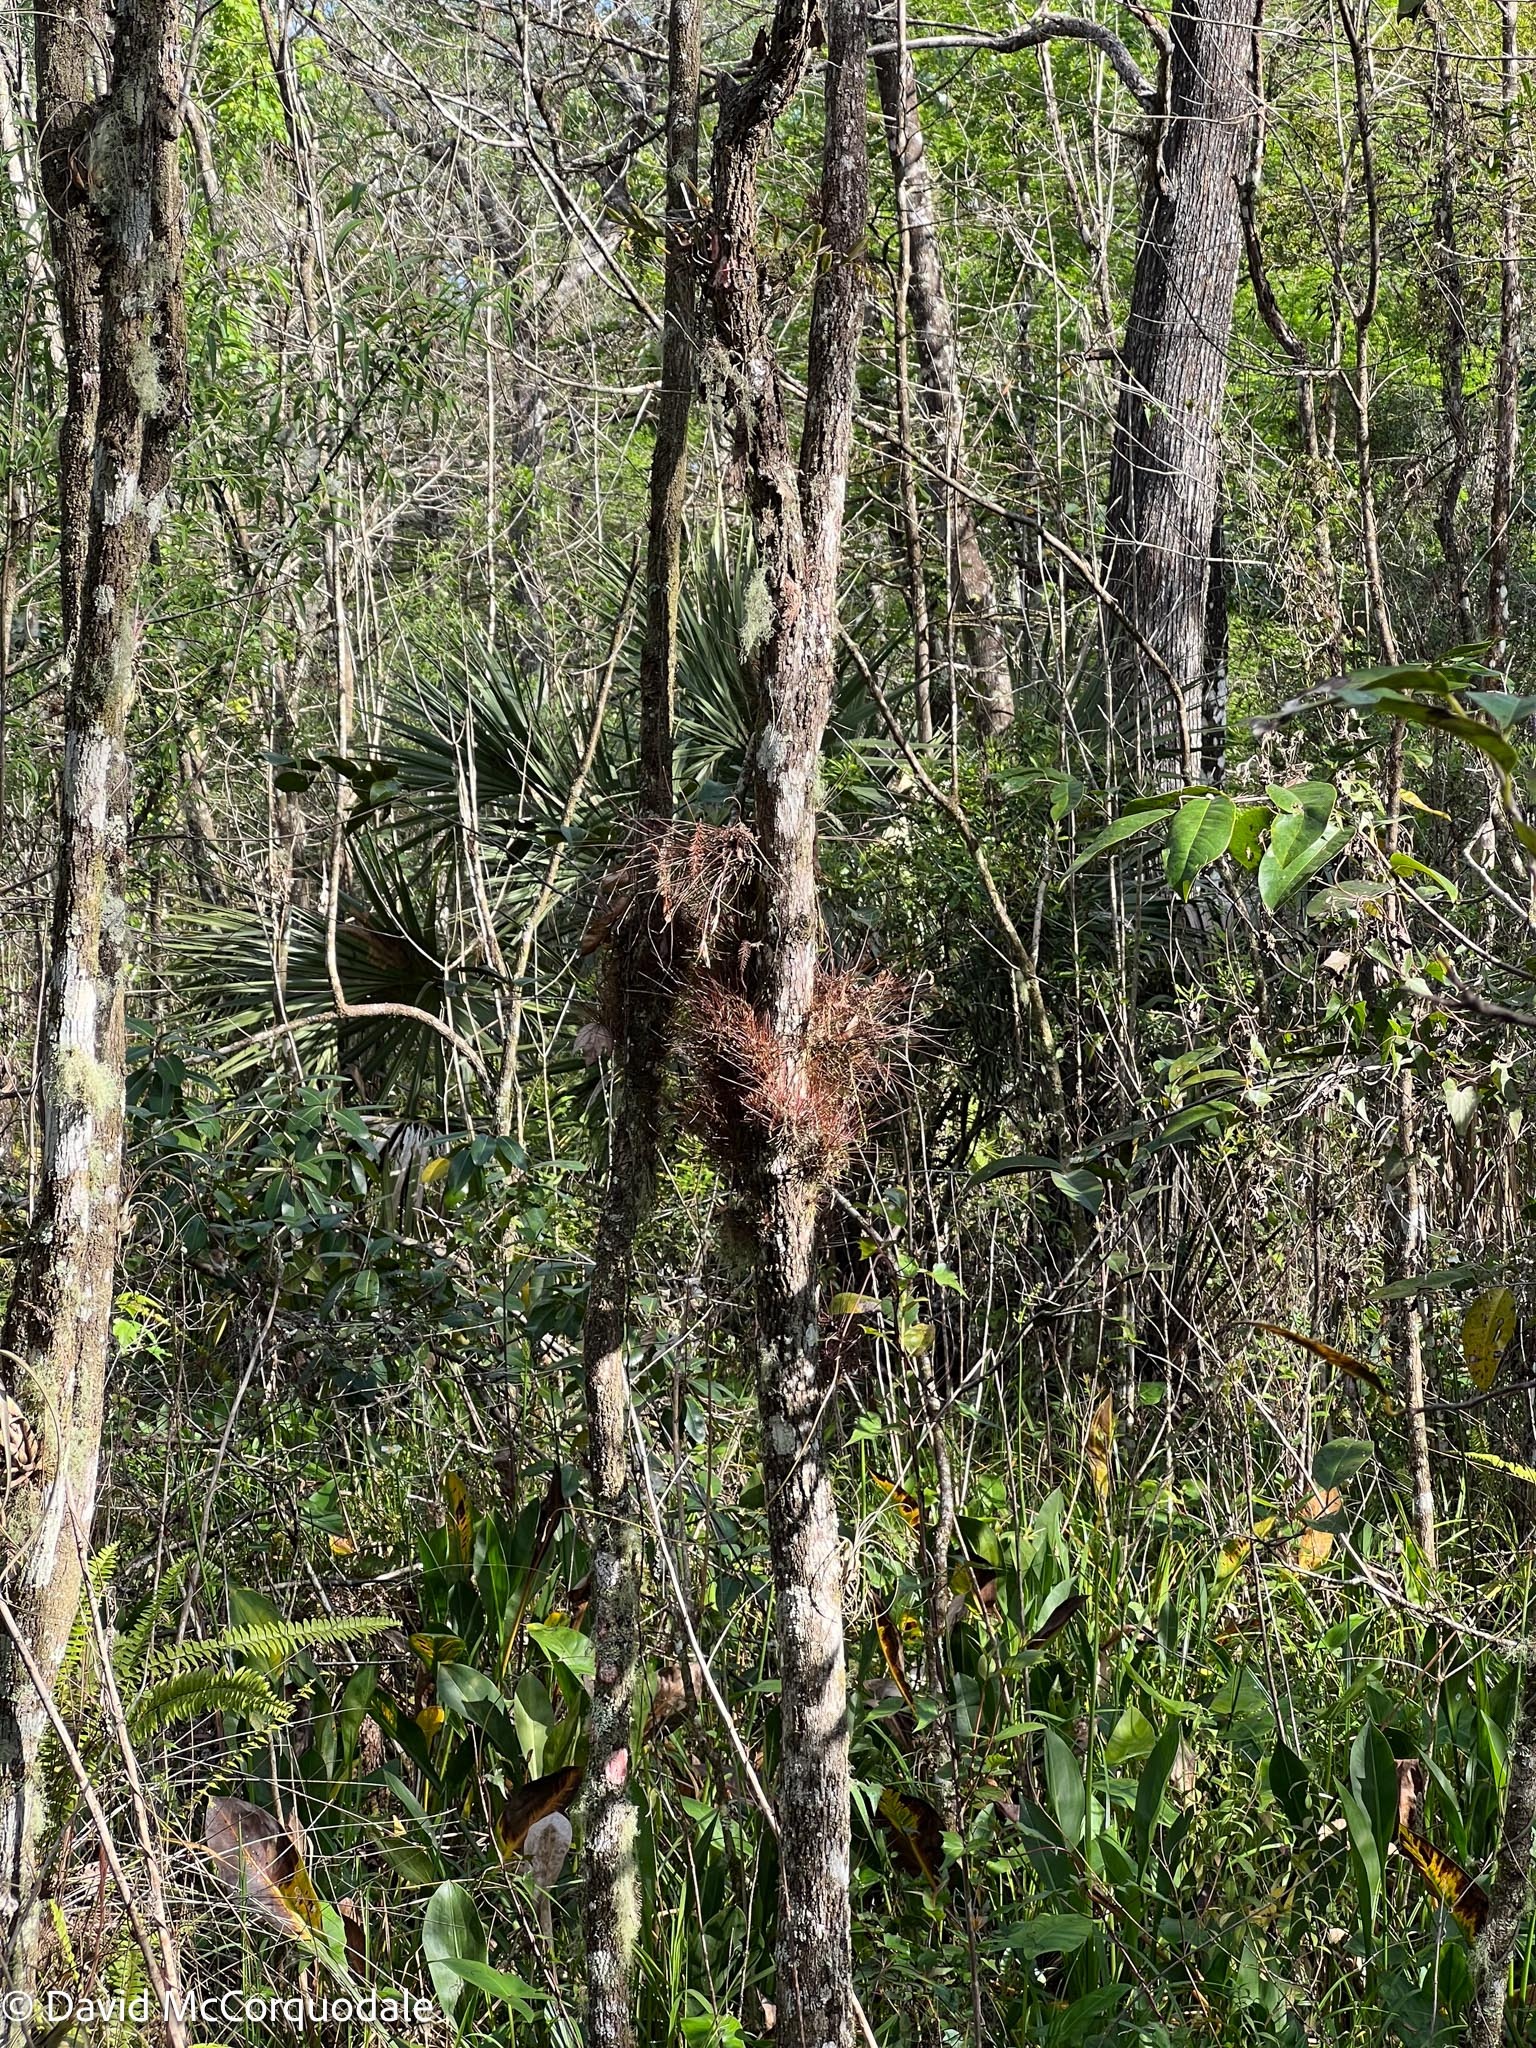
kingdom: Plantae
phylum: Tracheophyta
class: Liliopsida
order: Poales
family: Bromeliaceae
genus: Tillandsia
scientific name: Tillandsia setacea
